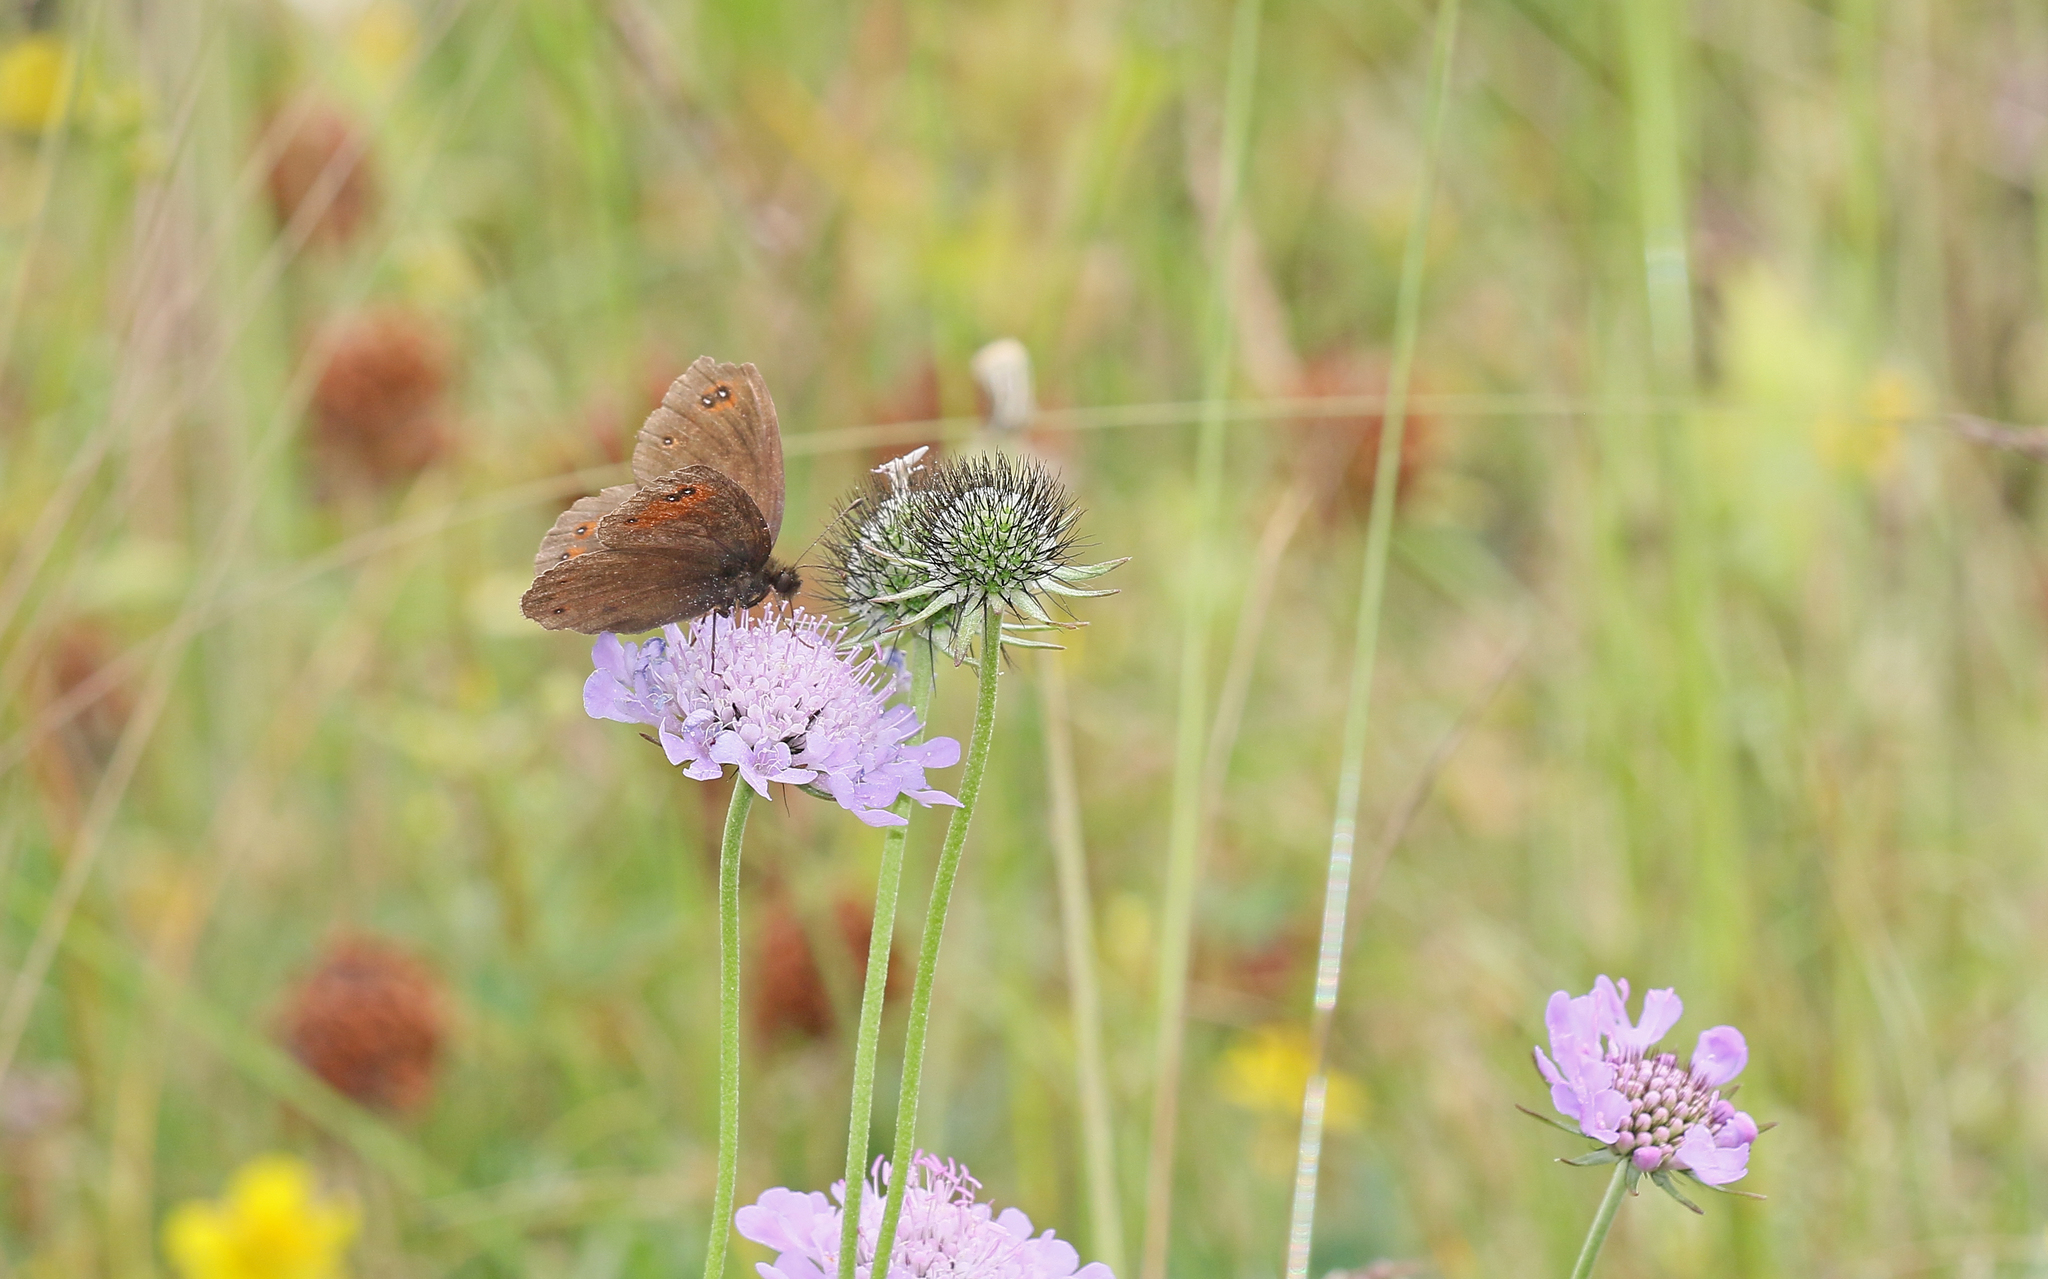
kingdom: Animalia
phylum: Arthropoda
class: Insecta
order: Lepidoptera
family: Nymphalidae
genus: Erebia
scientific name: Erebia meolans
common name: Piedmont ringlet
